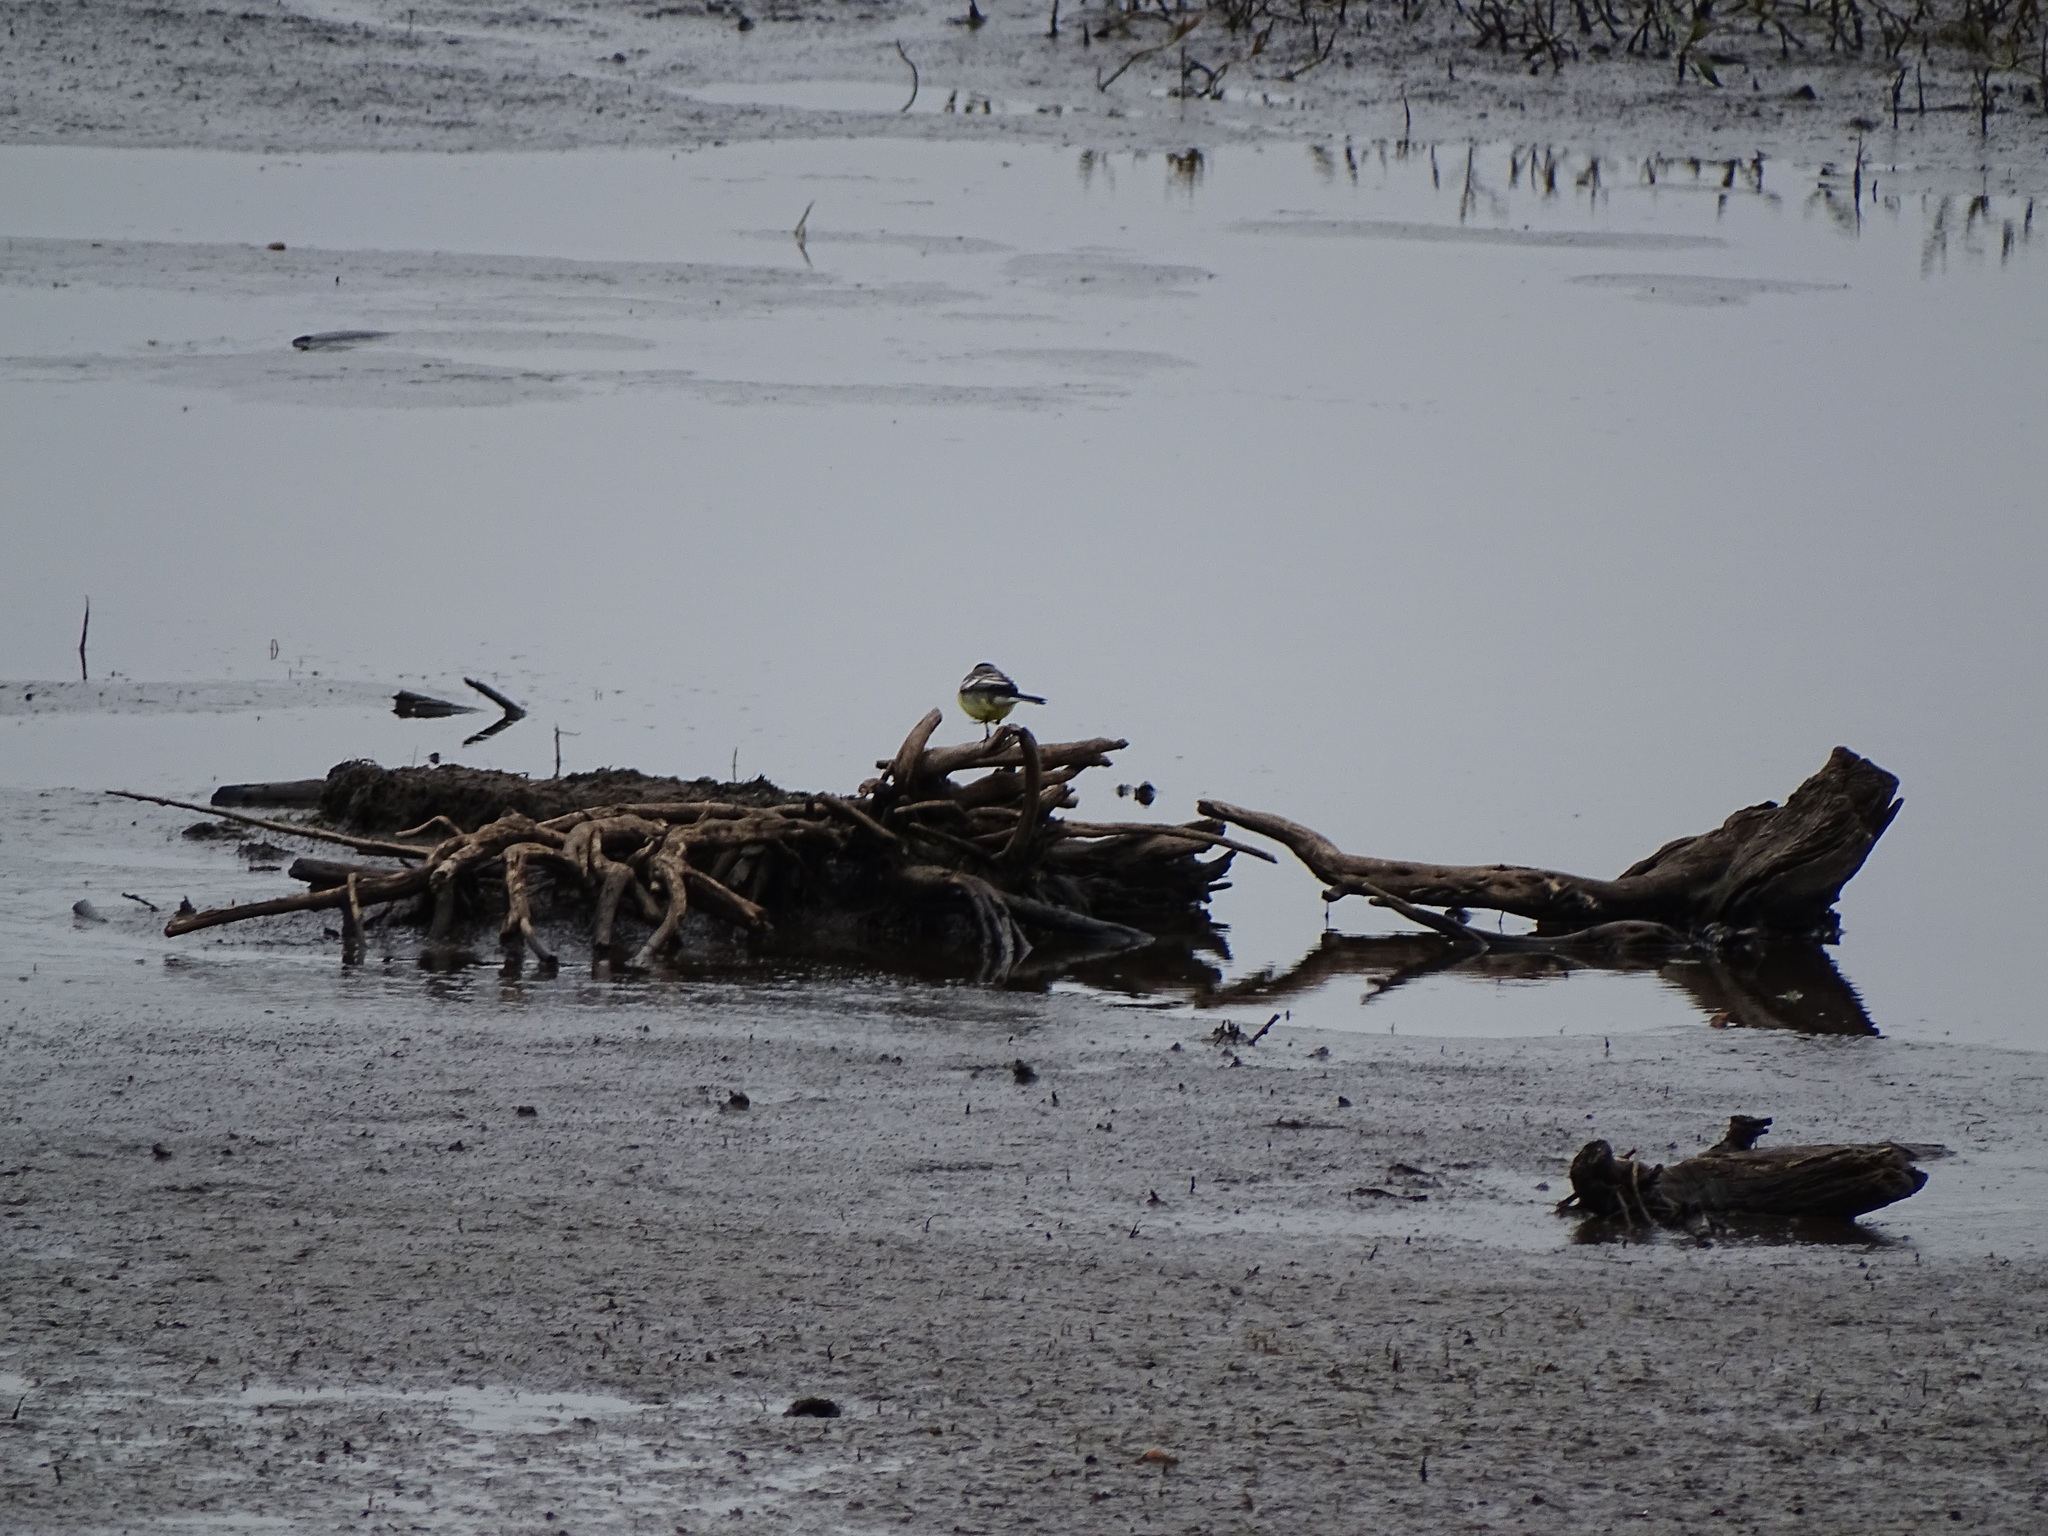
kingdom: Animalia
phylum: Chordata
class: Aves
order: Passeriformes
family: Motacillidae
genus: Motacilla
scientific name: Motacilla citreola
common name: Citrine wagtail
